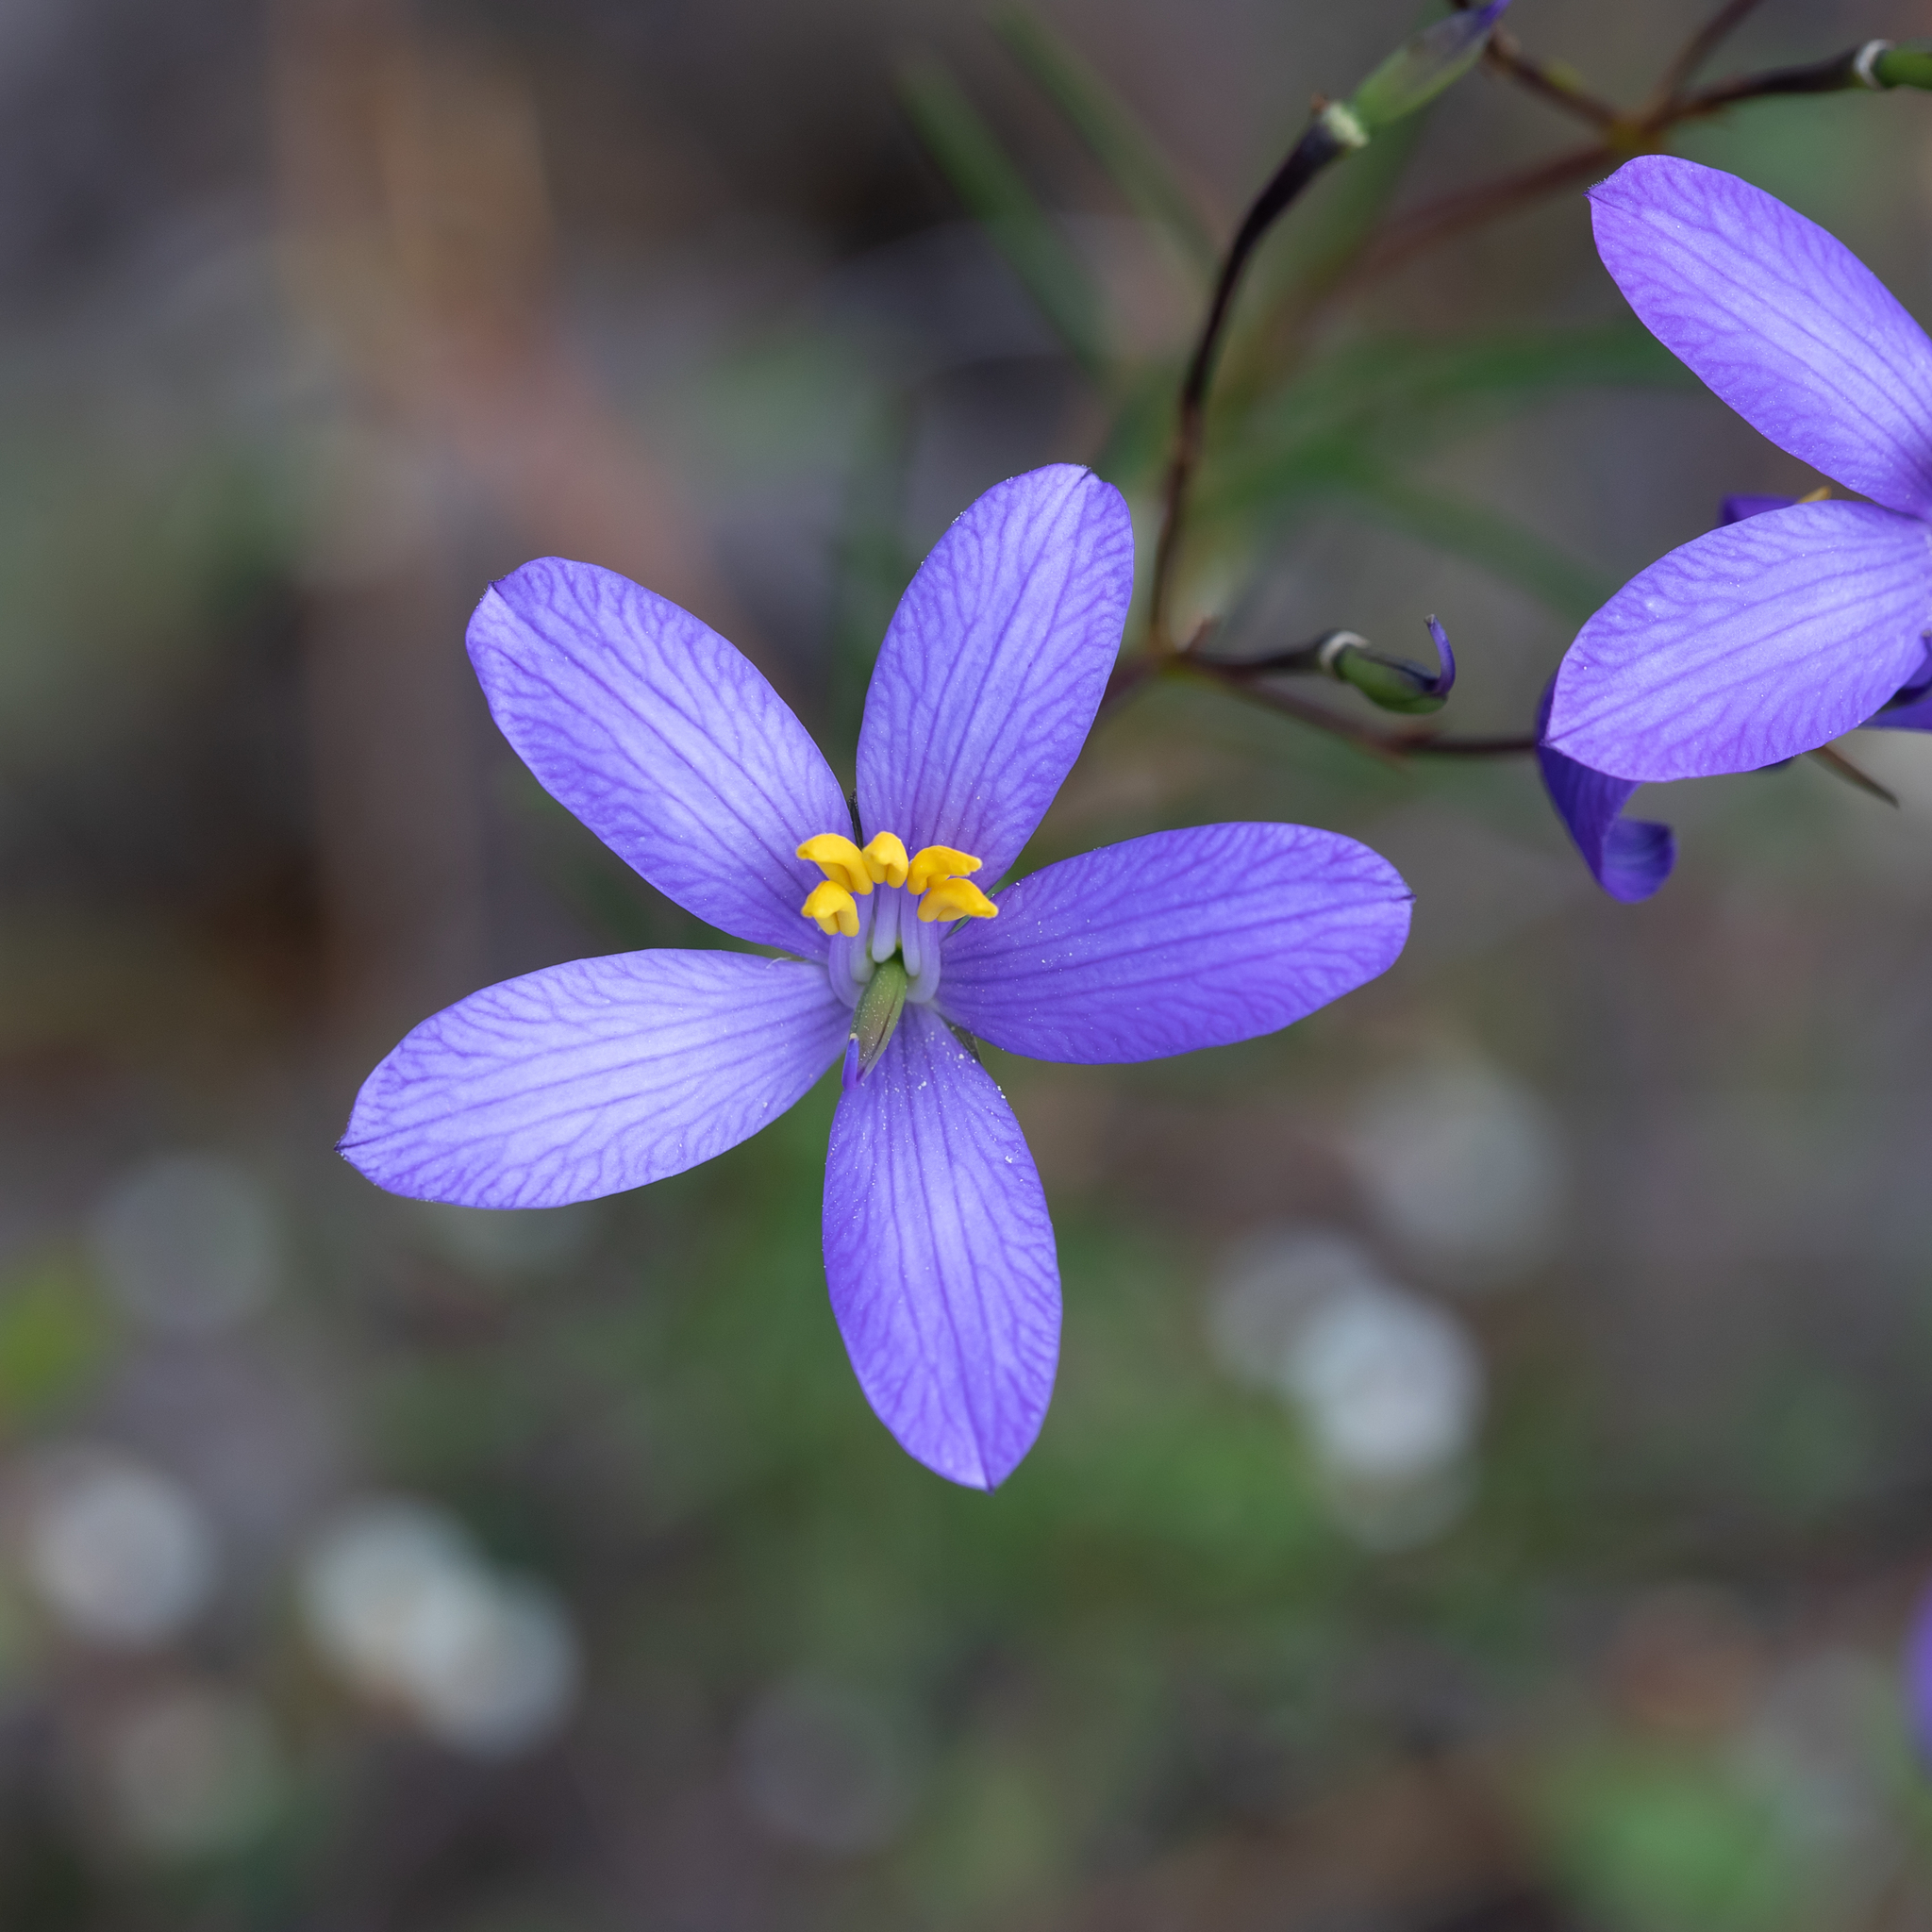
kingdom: Plantae
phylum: Tracheophyta
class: Magnoliopsida
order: Apiales
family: Pittosporaceae
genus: Cheiranthera
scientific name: Cheiranthera alternifolia
